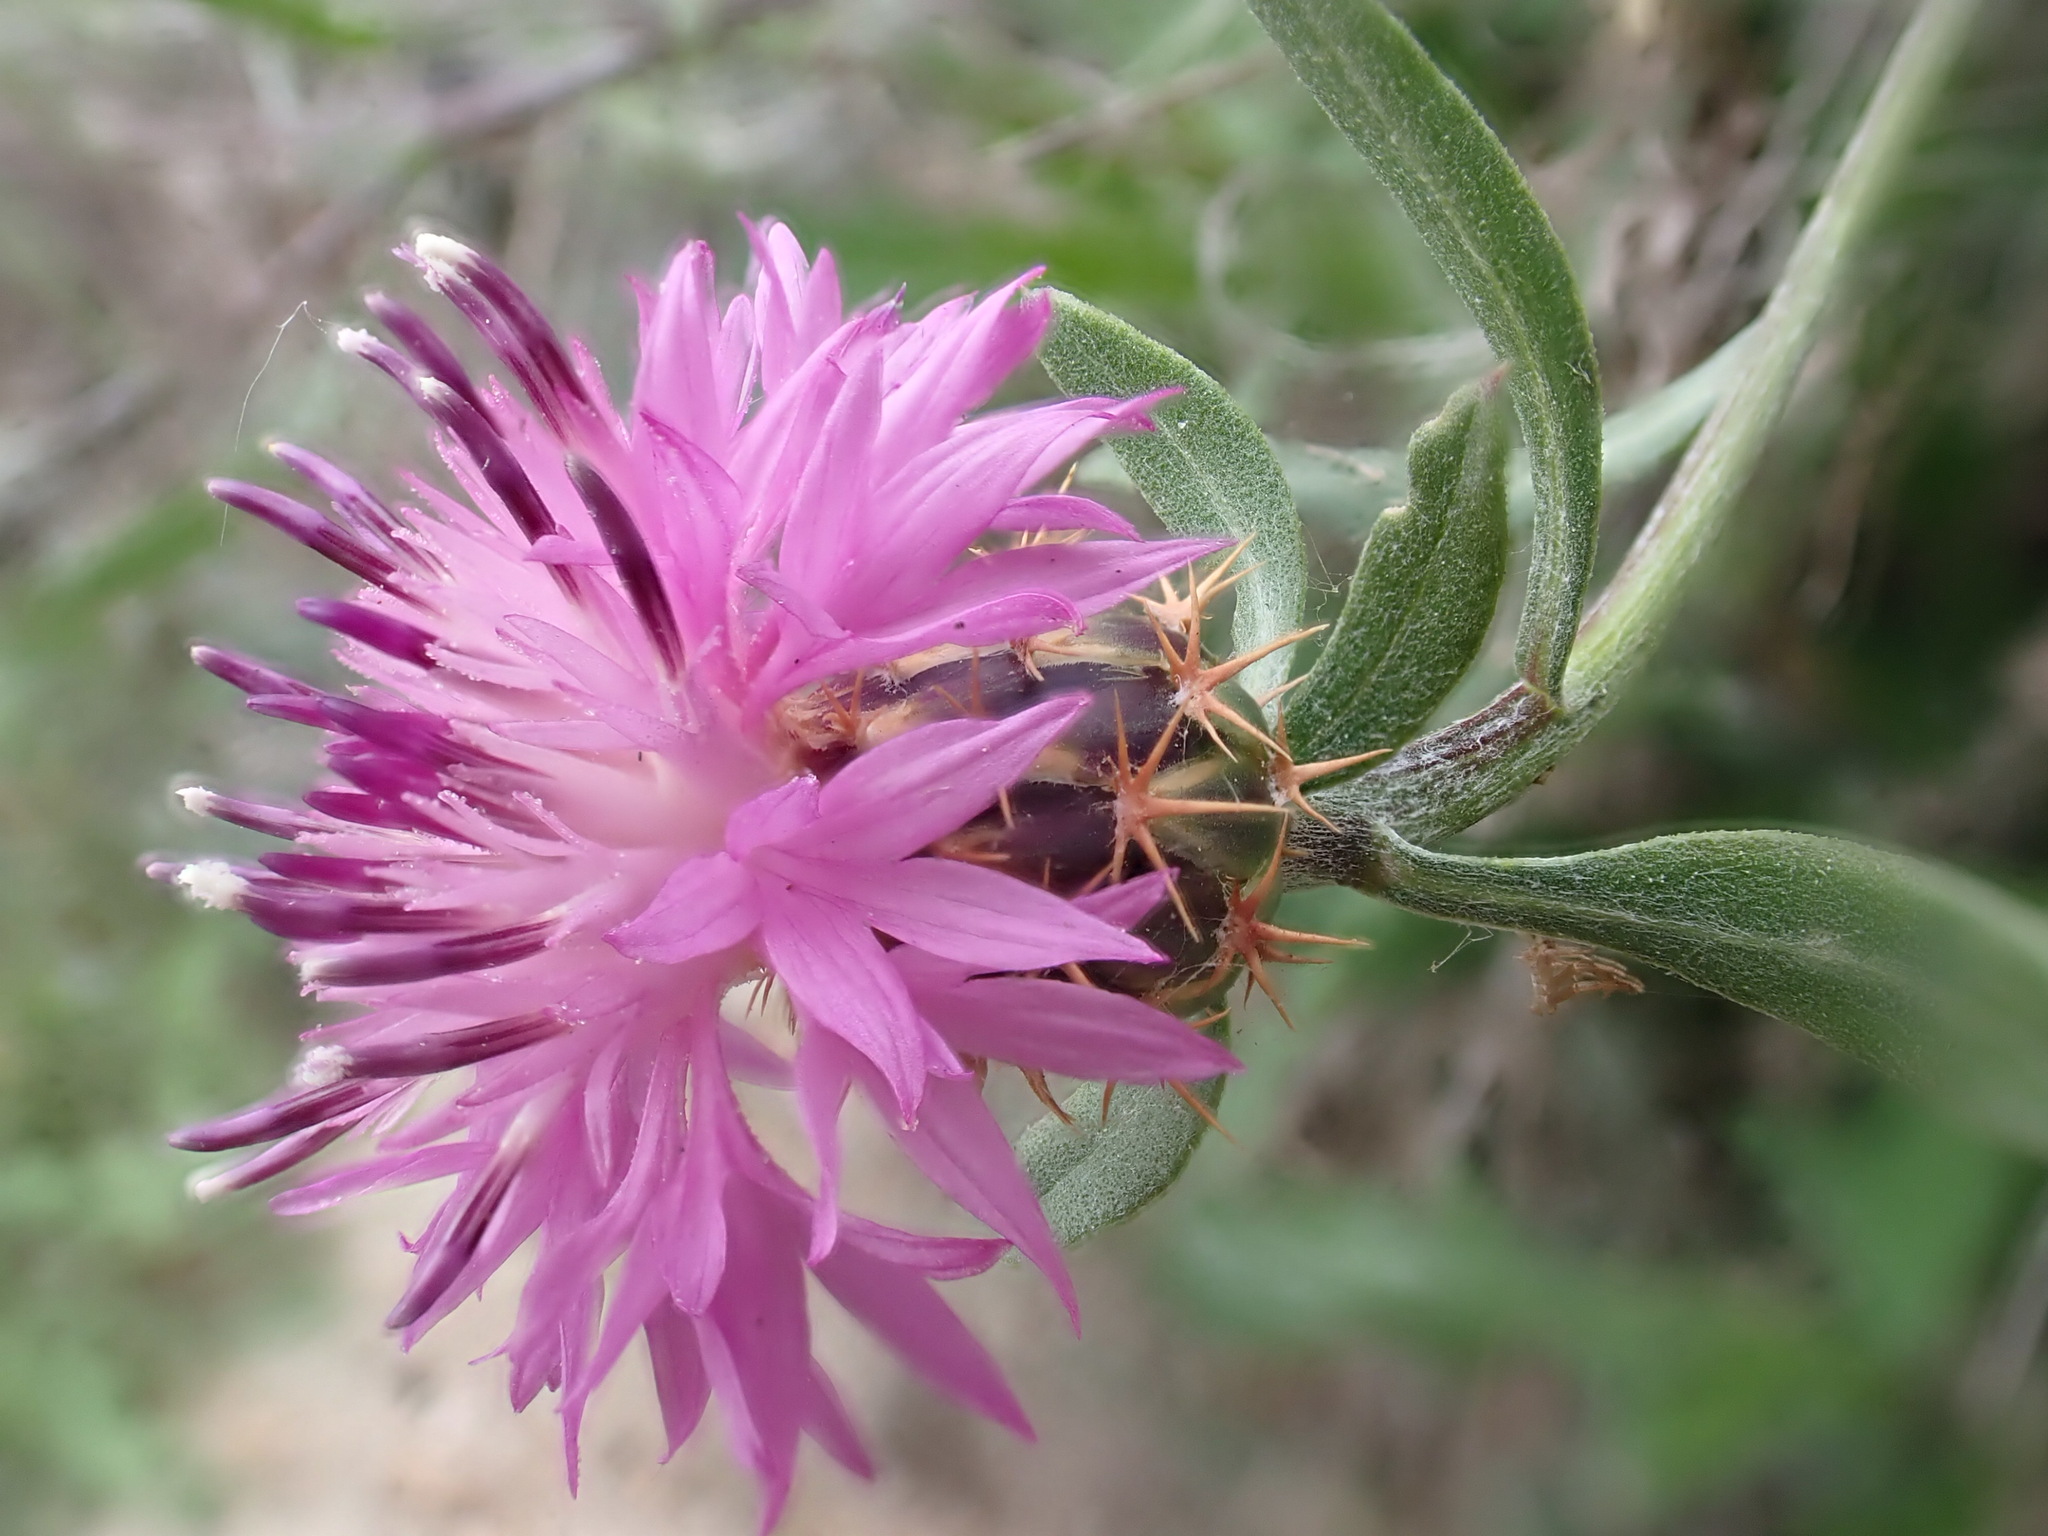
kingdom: Plantae
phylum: Tracheophyta
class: Magnoliopsida
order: Asterales
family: Asteraceae
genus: Centaurea
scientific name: Centaurea aspera
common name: Rough star-thistle
